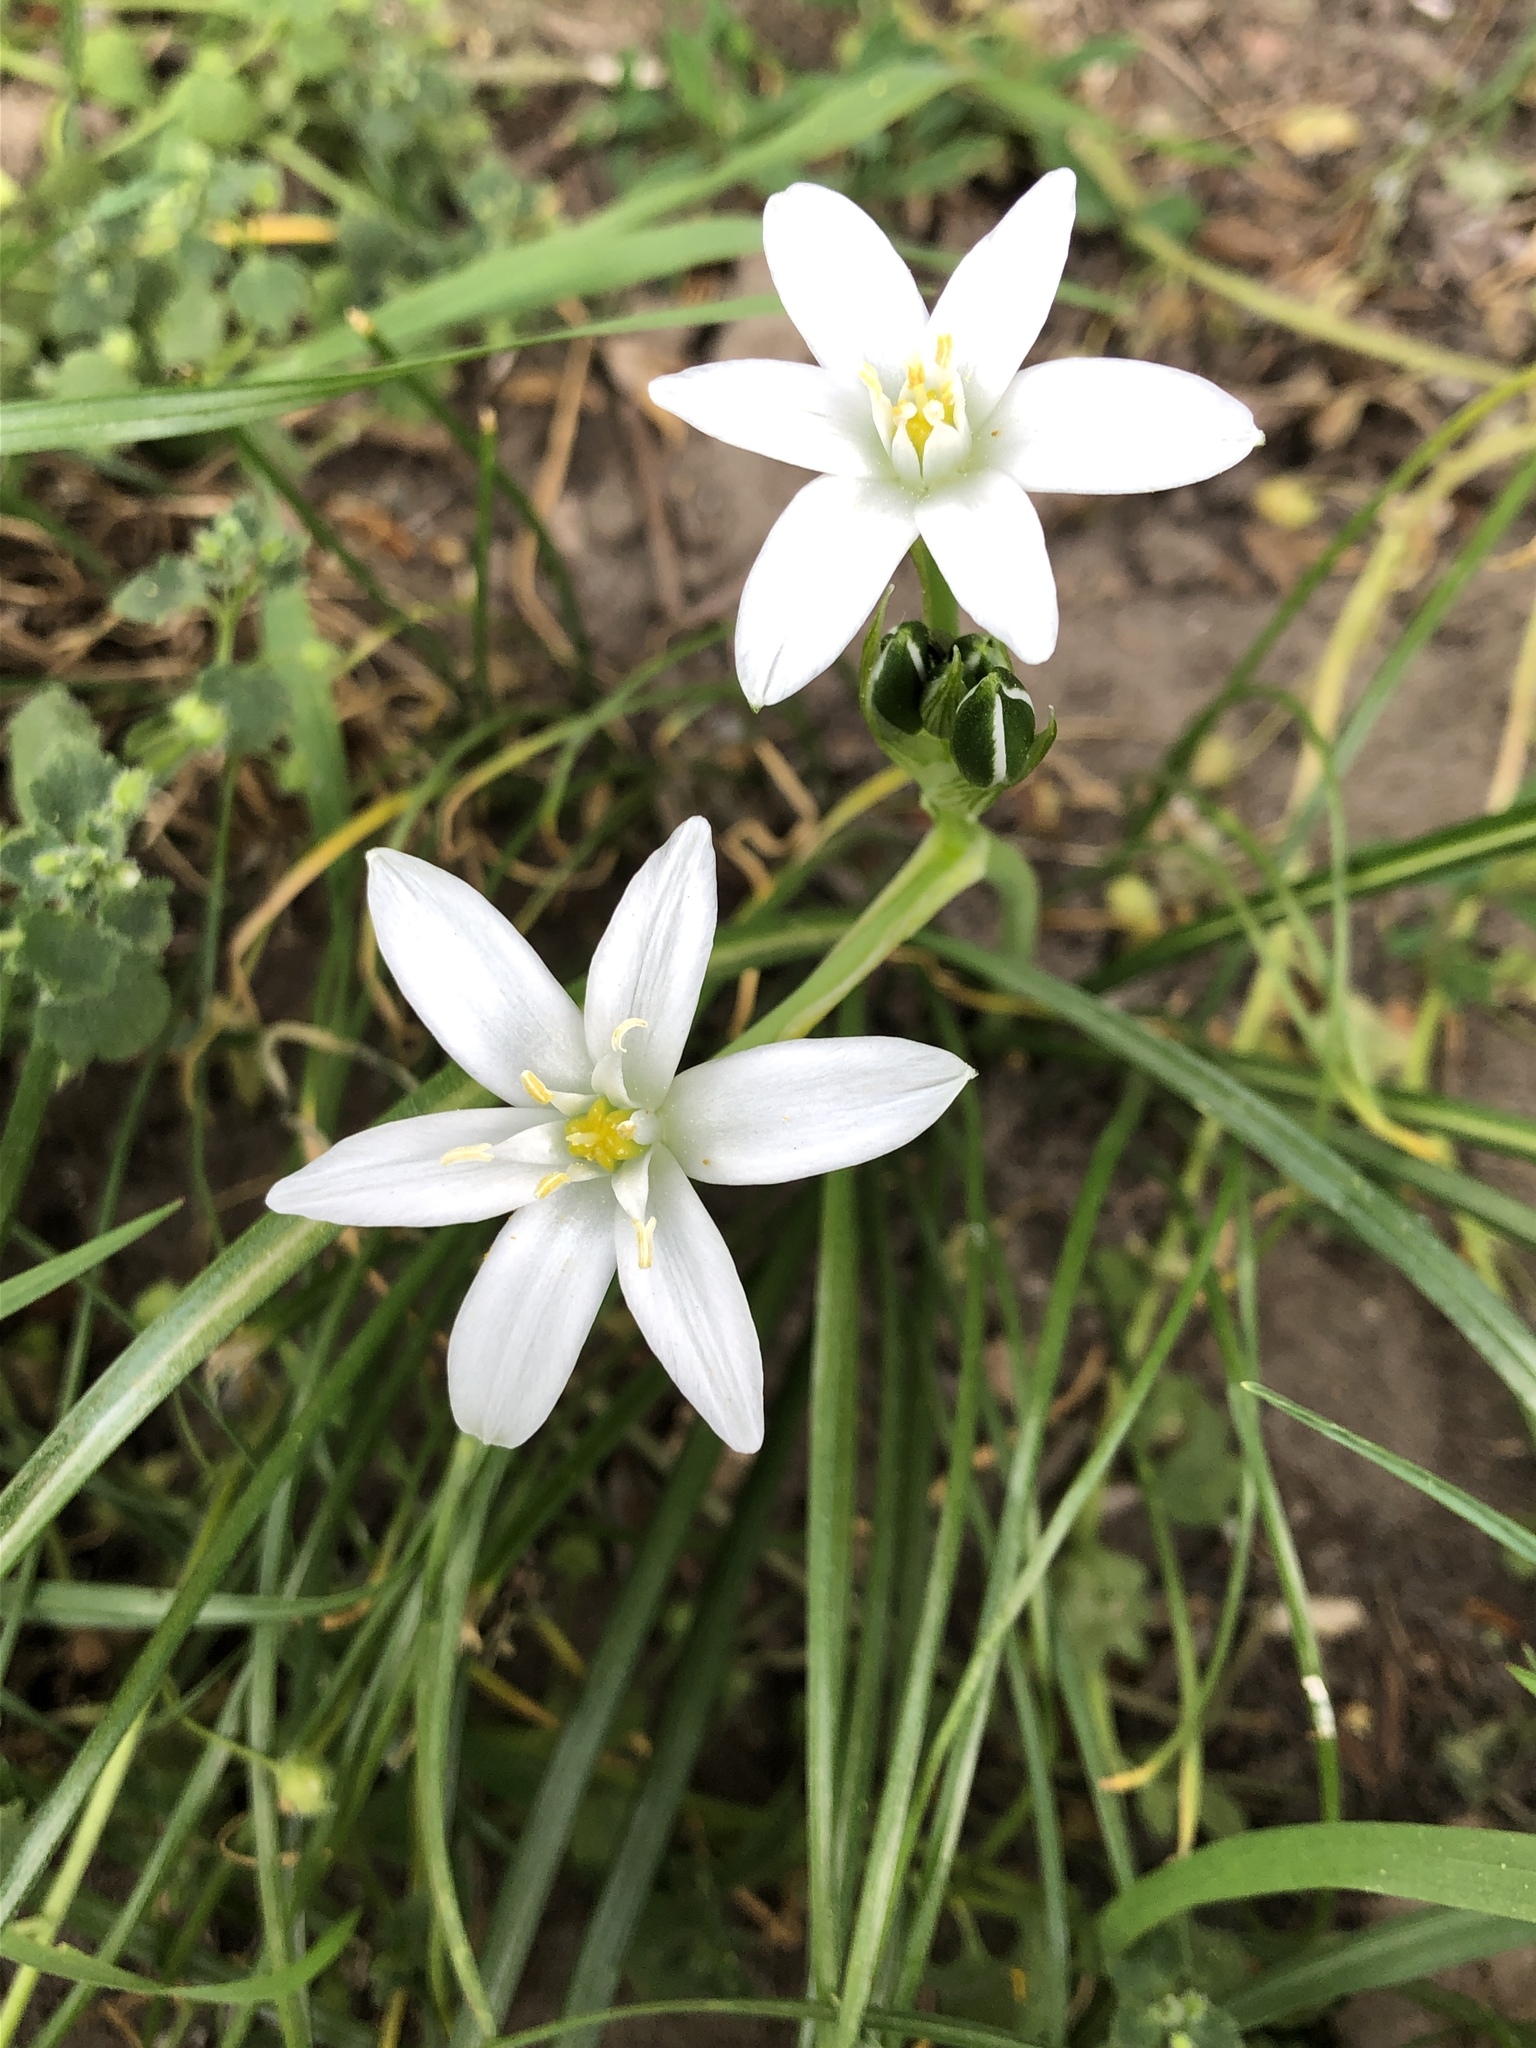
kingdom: Plantae
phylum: Tracheophyta
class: Liliopsida
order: Asparagales
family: Asparagaceae
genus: Ornithogalum
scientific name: Ornithogalum umbellatum
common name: Garden star-of-bethlehem
